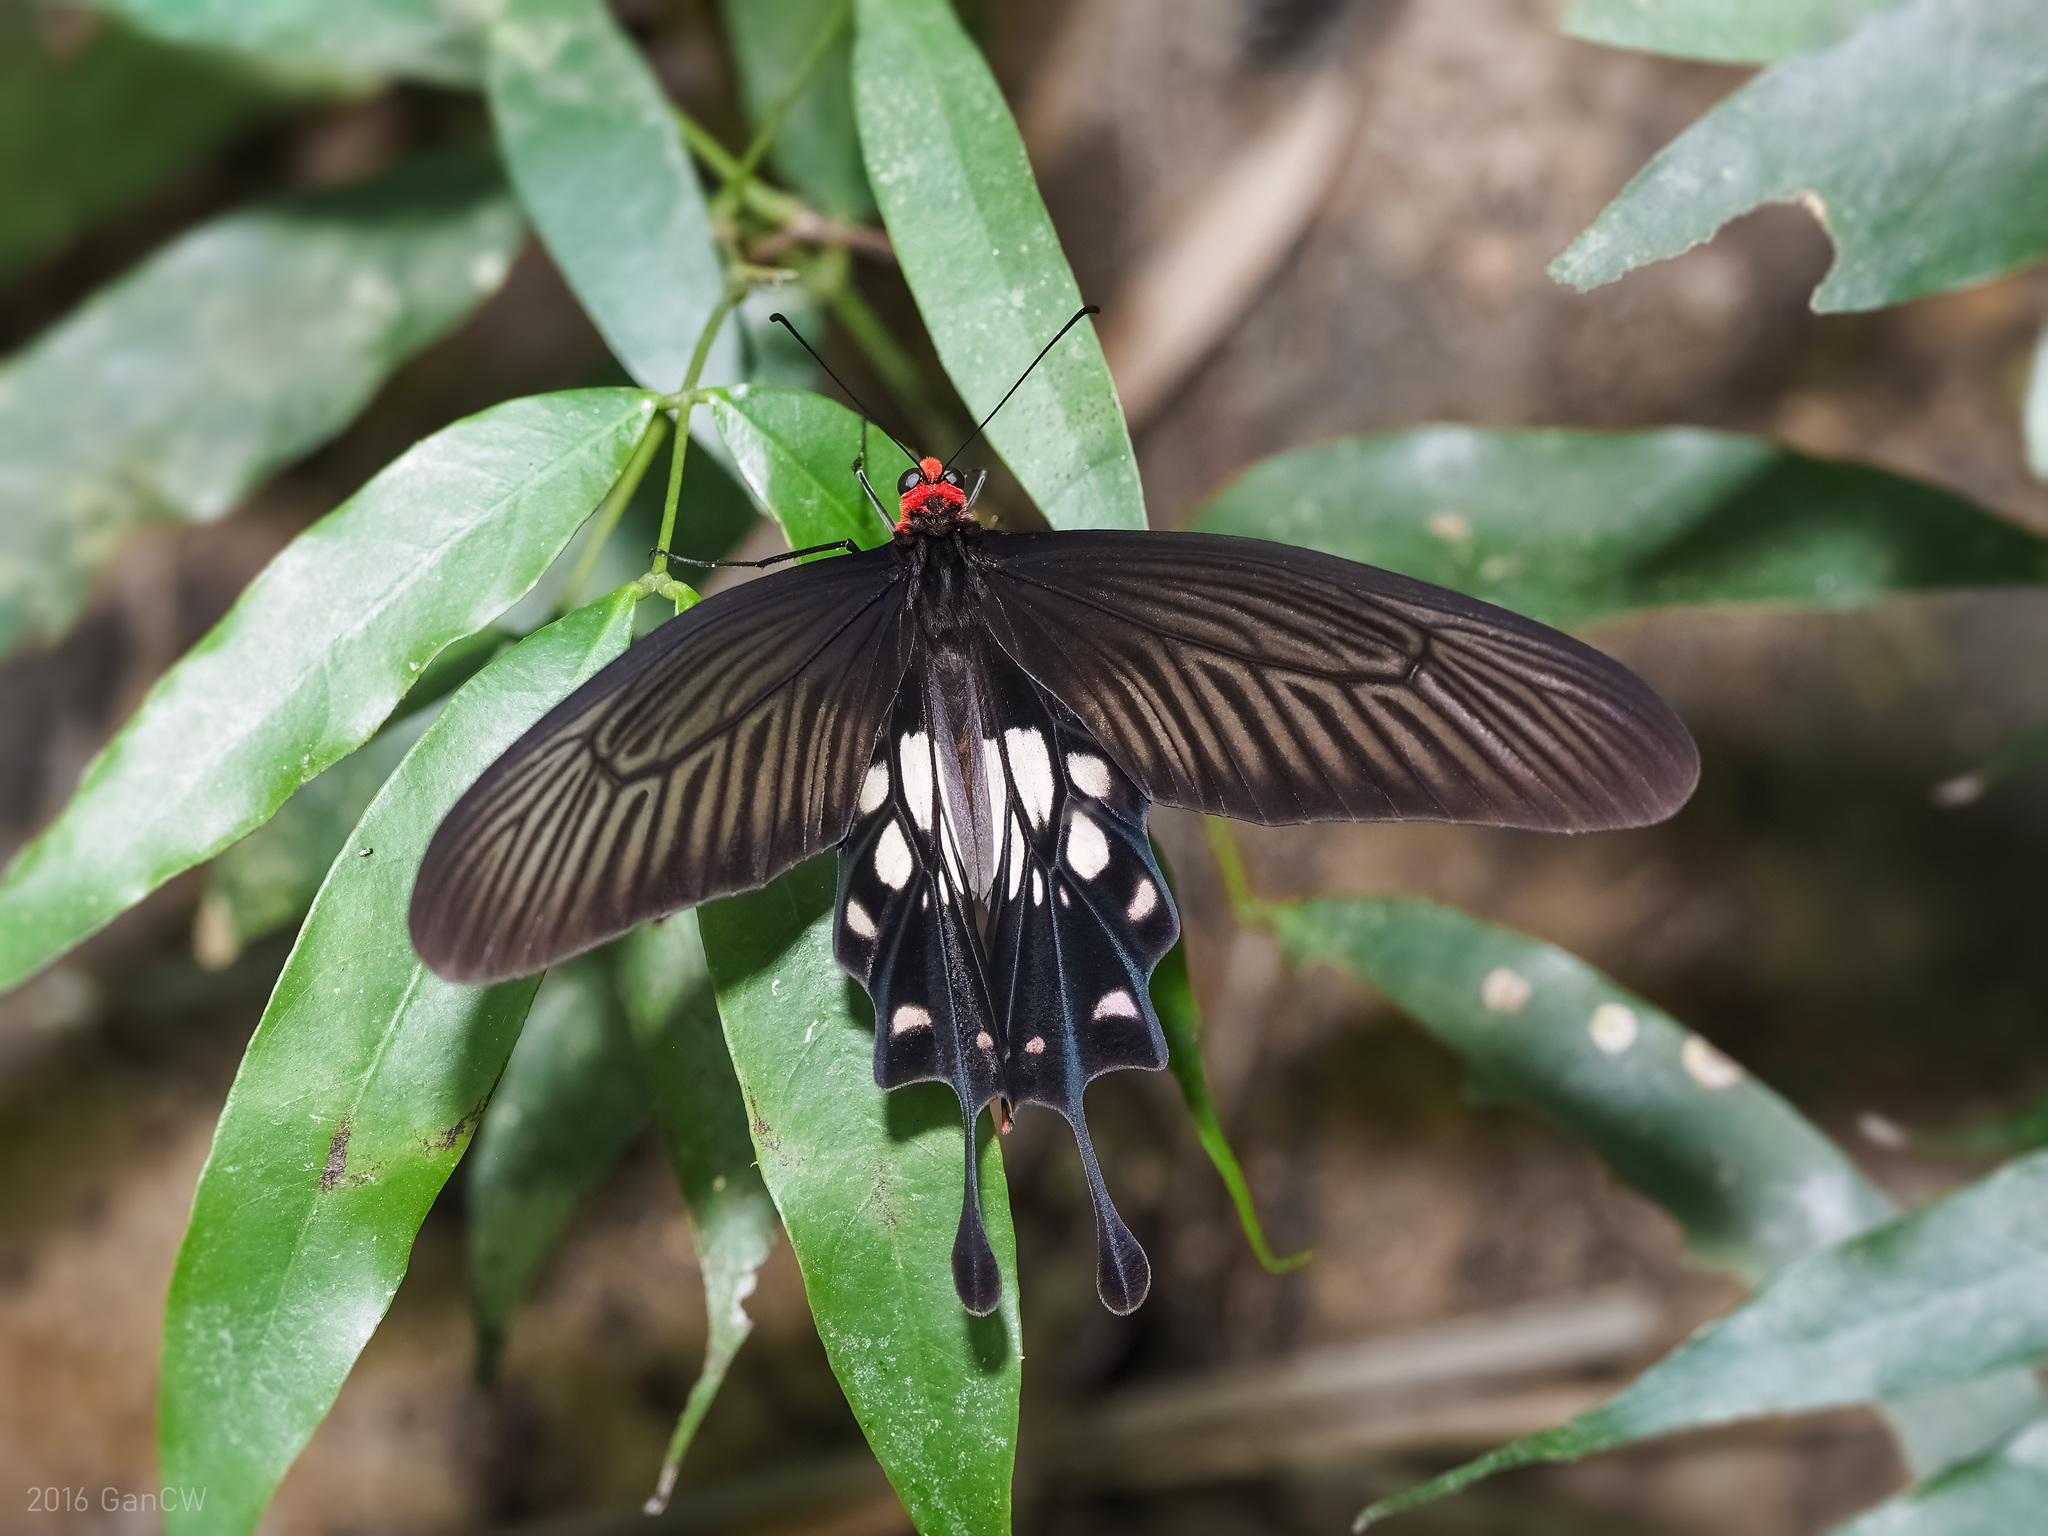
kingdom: Animalia
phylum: Arthropoda
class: Insecta
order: Lepidoptera
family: Papilionidae
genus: Losaria
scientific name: Losaria
